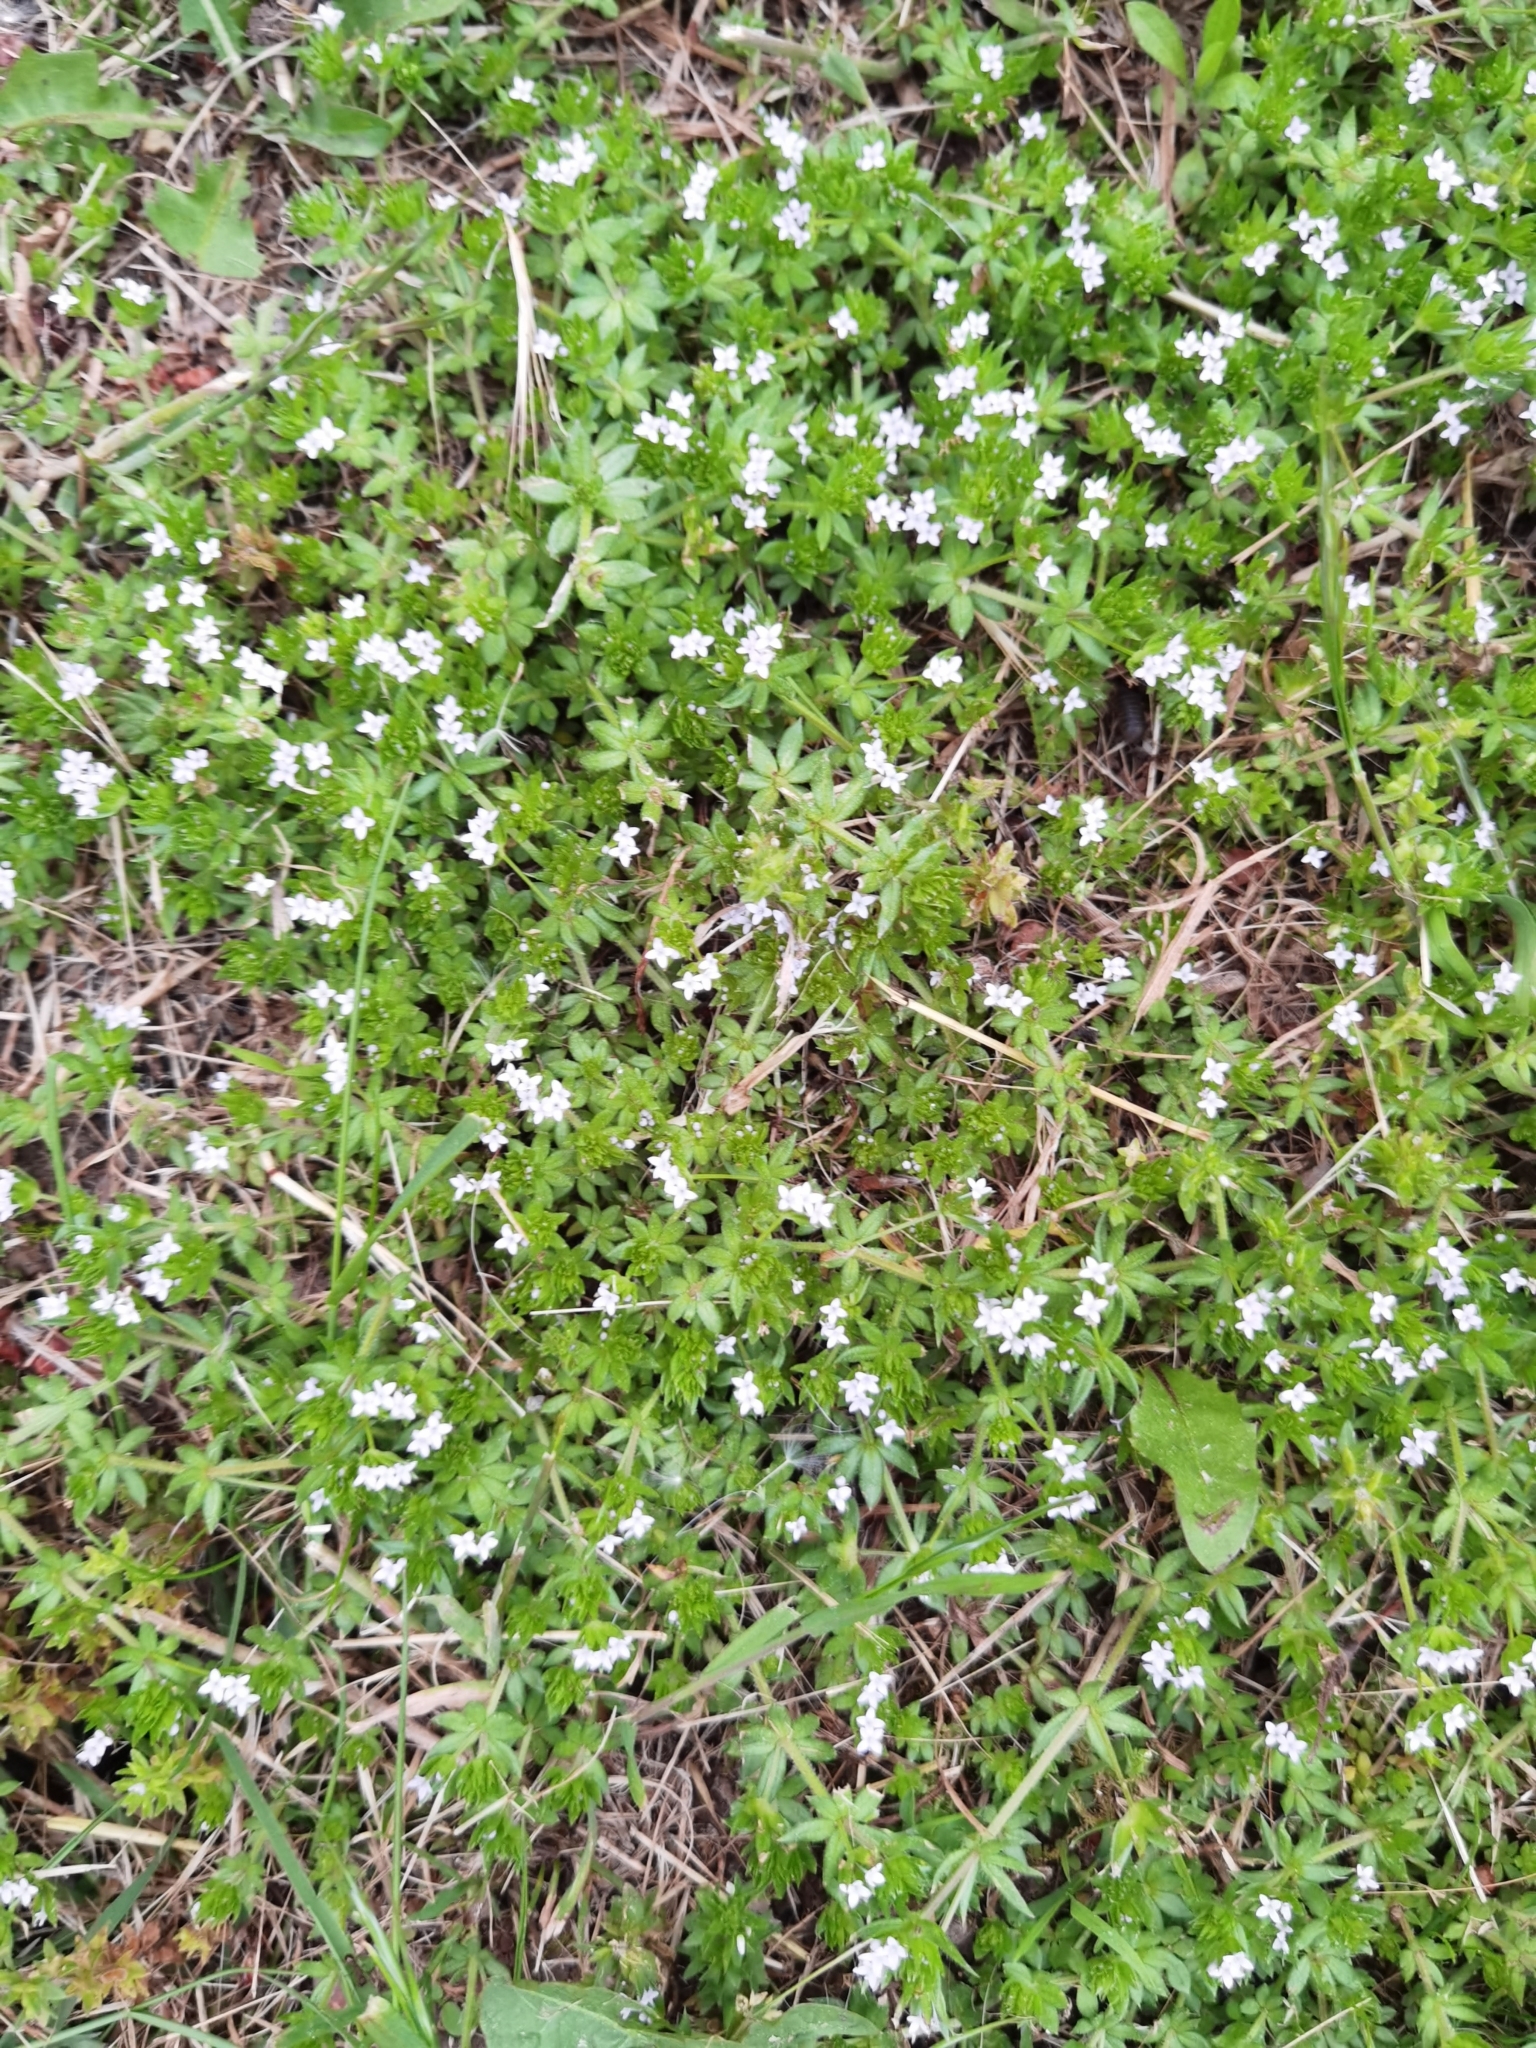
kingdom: Plantae
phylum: Tracheophyta
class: Magnoliopsida
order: Gentianales
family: Rubiaceae
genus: Sherardia
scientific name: Sherardia arvensis
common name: Field madder
